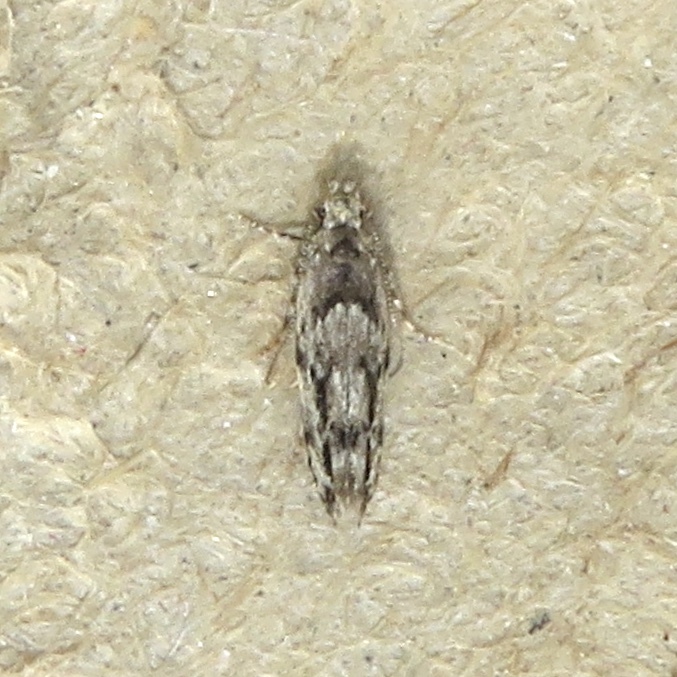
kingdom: Animalia
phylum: Arthropoda
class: Insecta
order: Lepidoptera
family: Gelechiidae
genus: Sinoe
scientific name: Sinoe chambersi
